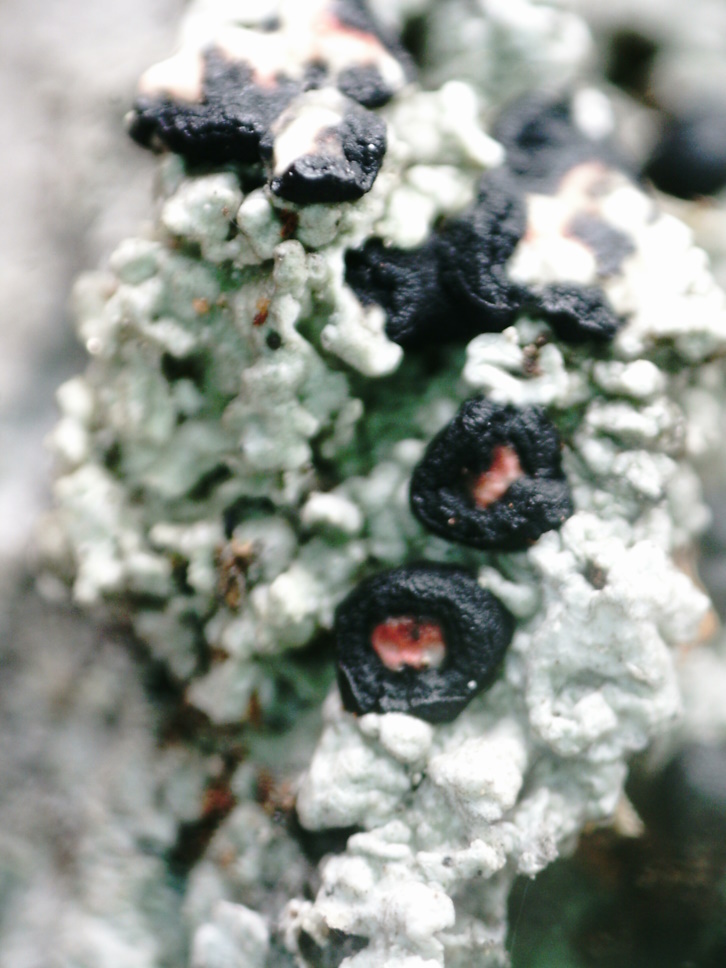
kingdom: Fungi
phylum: Ascomycota
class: Lecanoromycetes
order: Lecanorales
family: Tephromelataceae
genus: Mycoblastus
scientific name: Mycoblastus sanguinarius
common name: Bloody-heart lichen
